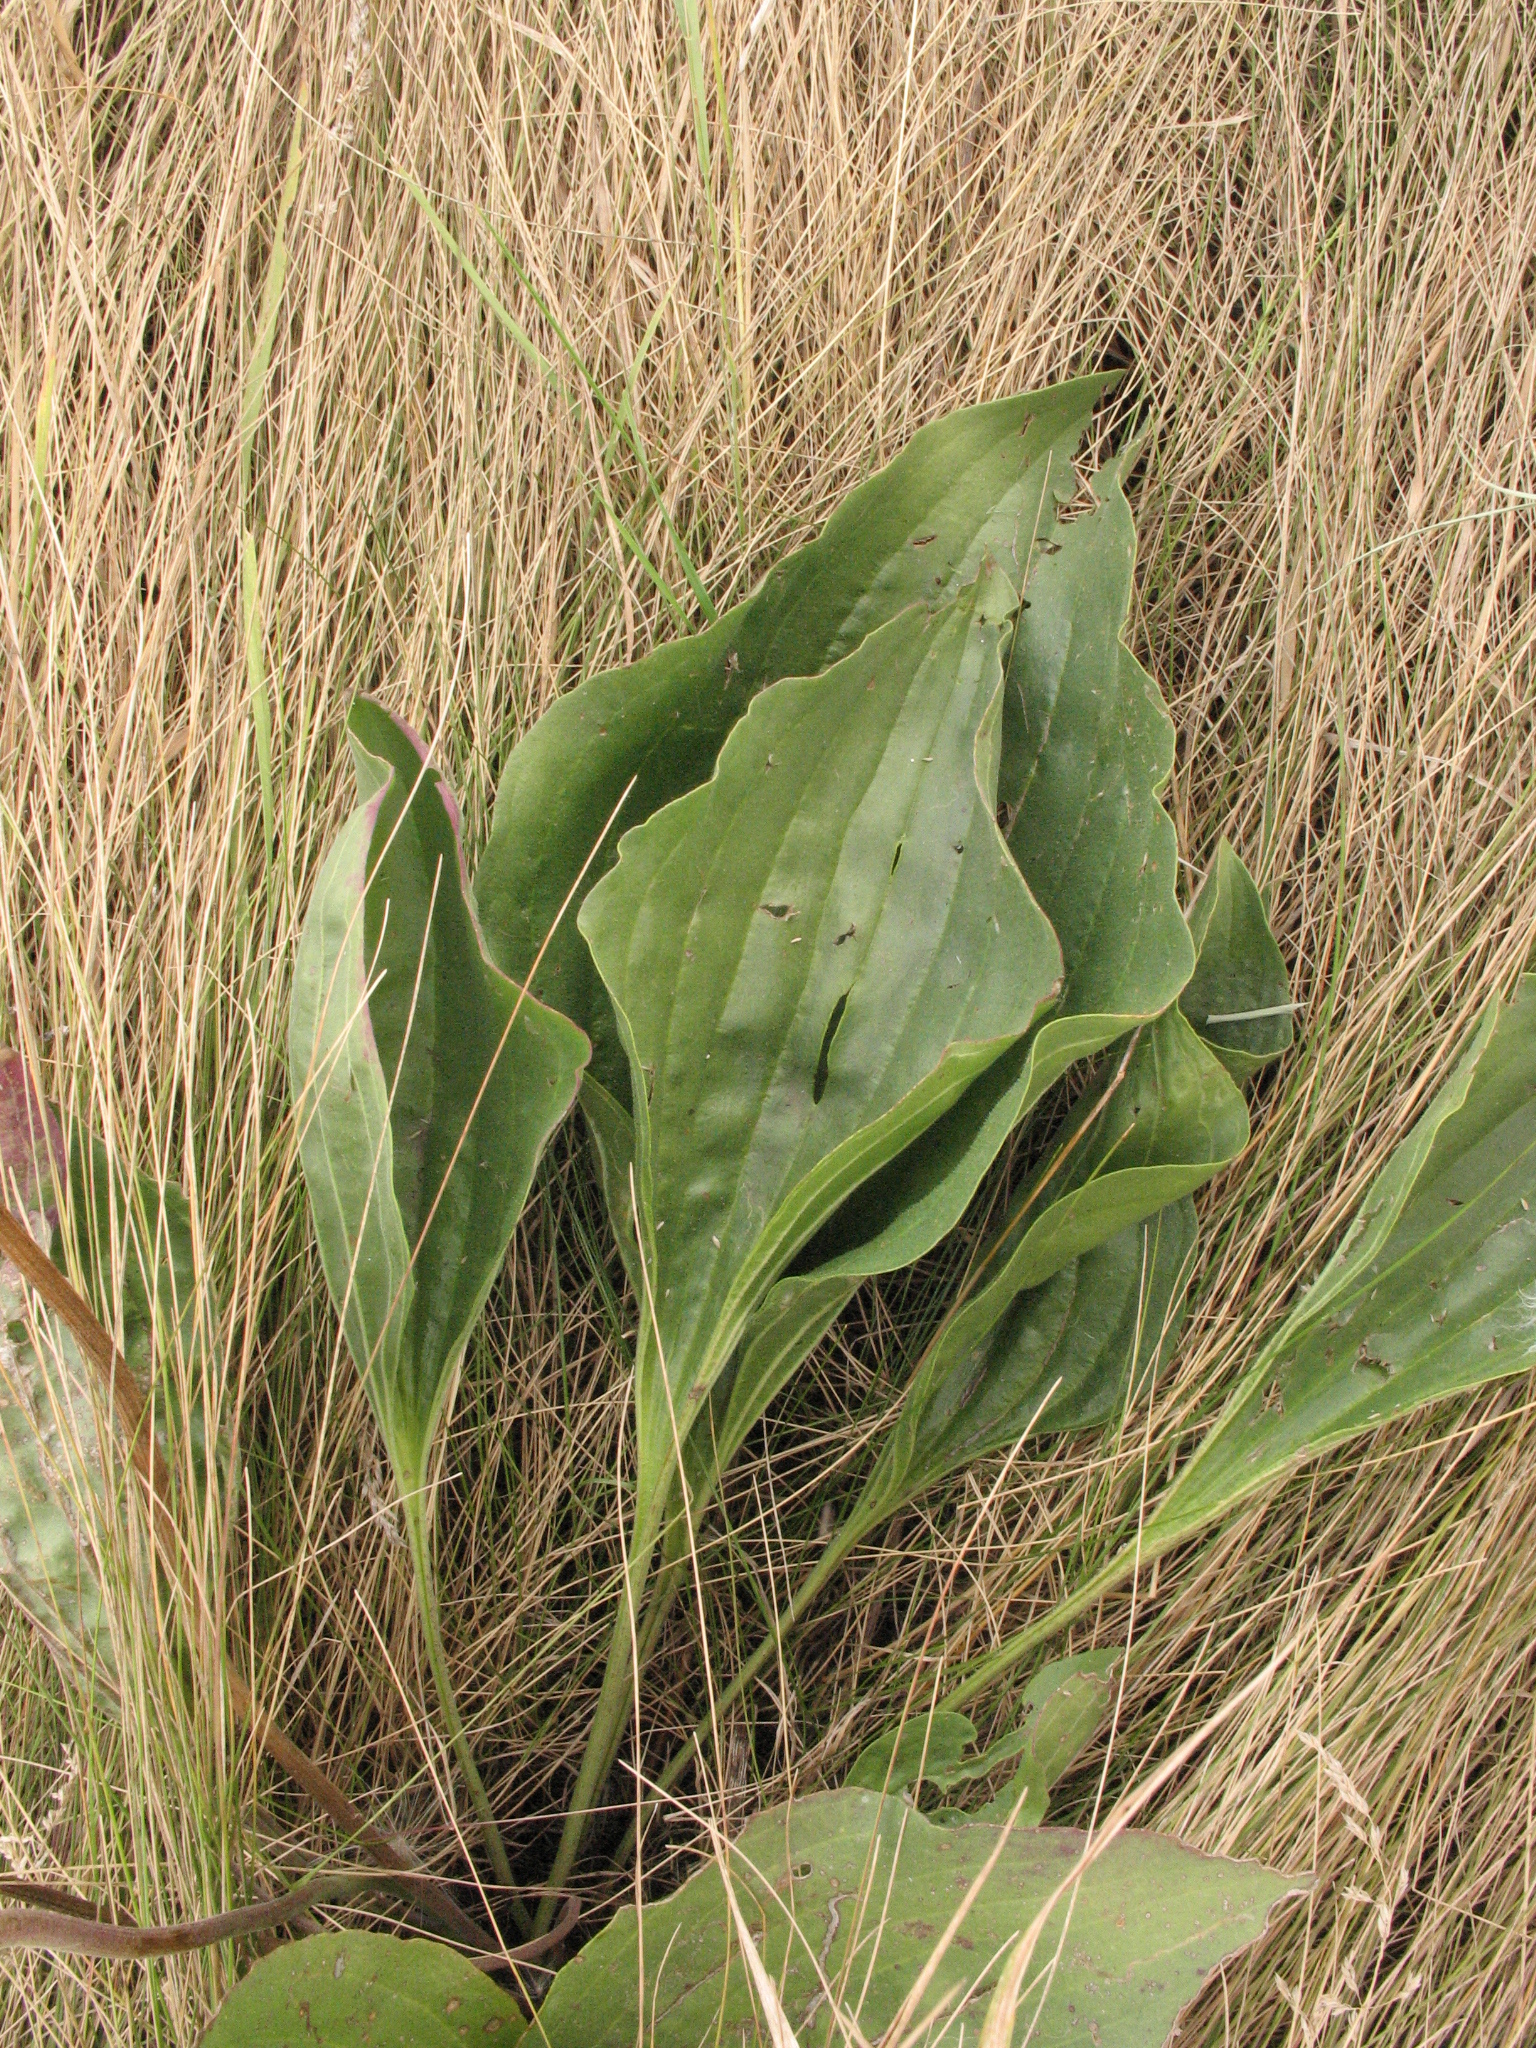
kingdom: Plantae
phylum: Tracheophyta
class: Magnoliopsida
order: Lamiales
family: Plantaginaceae
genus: Plantago
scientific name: Plantago maxima
